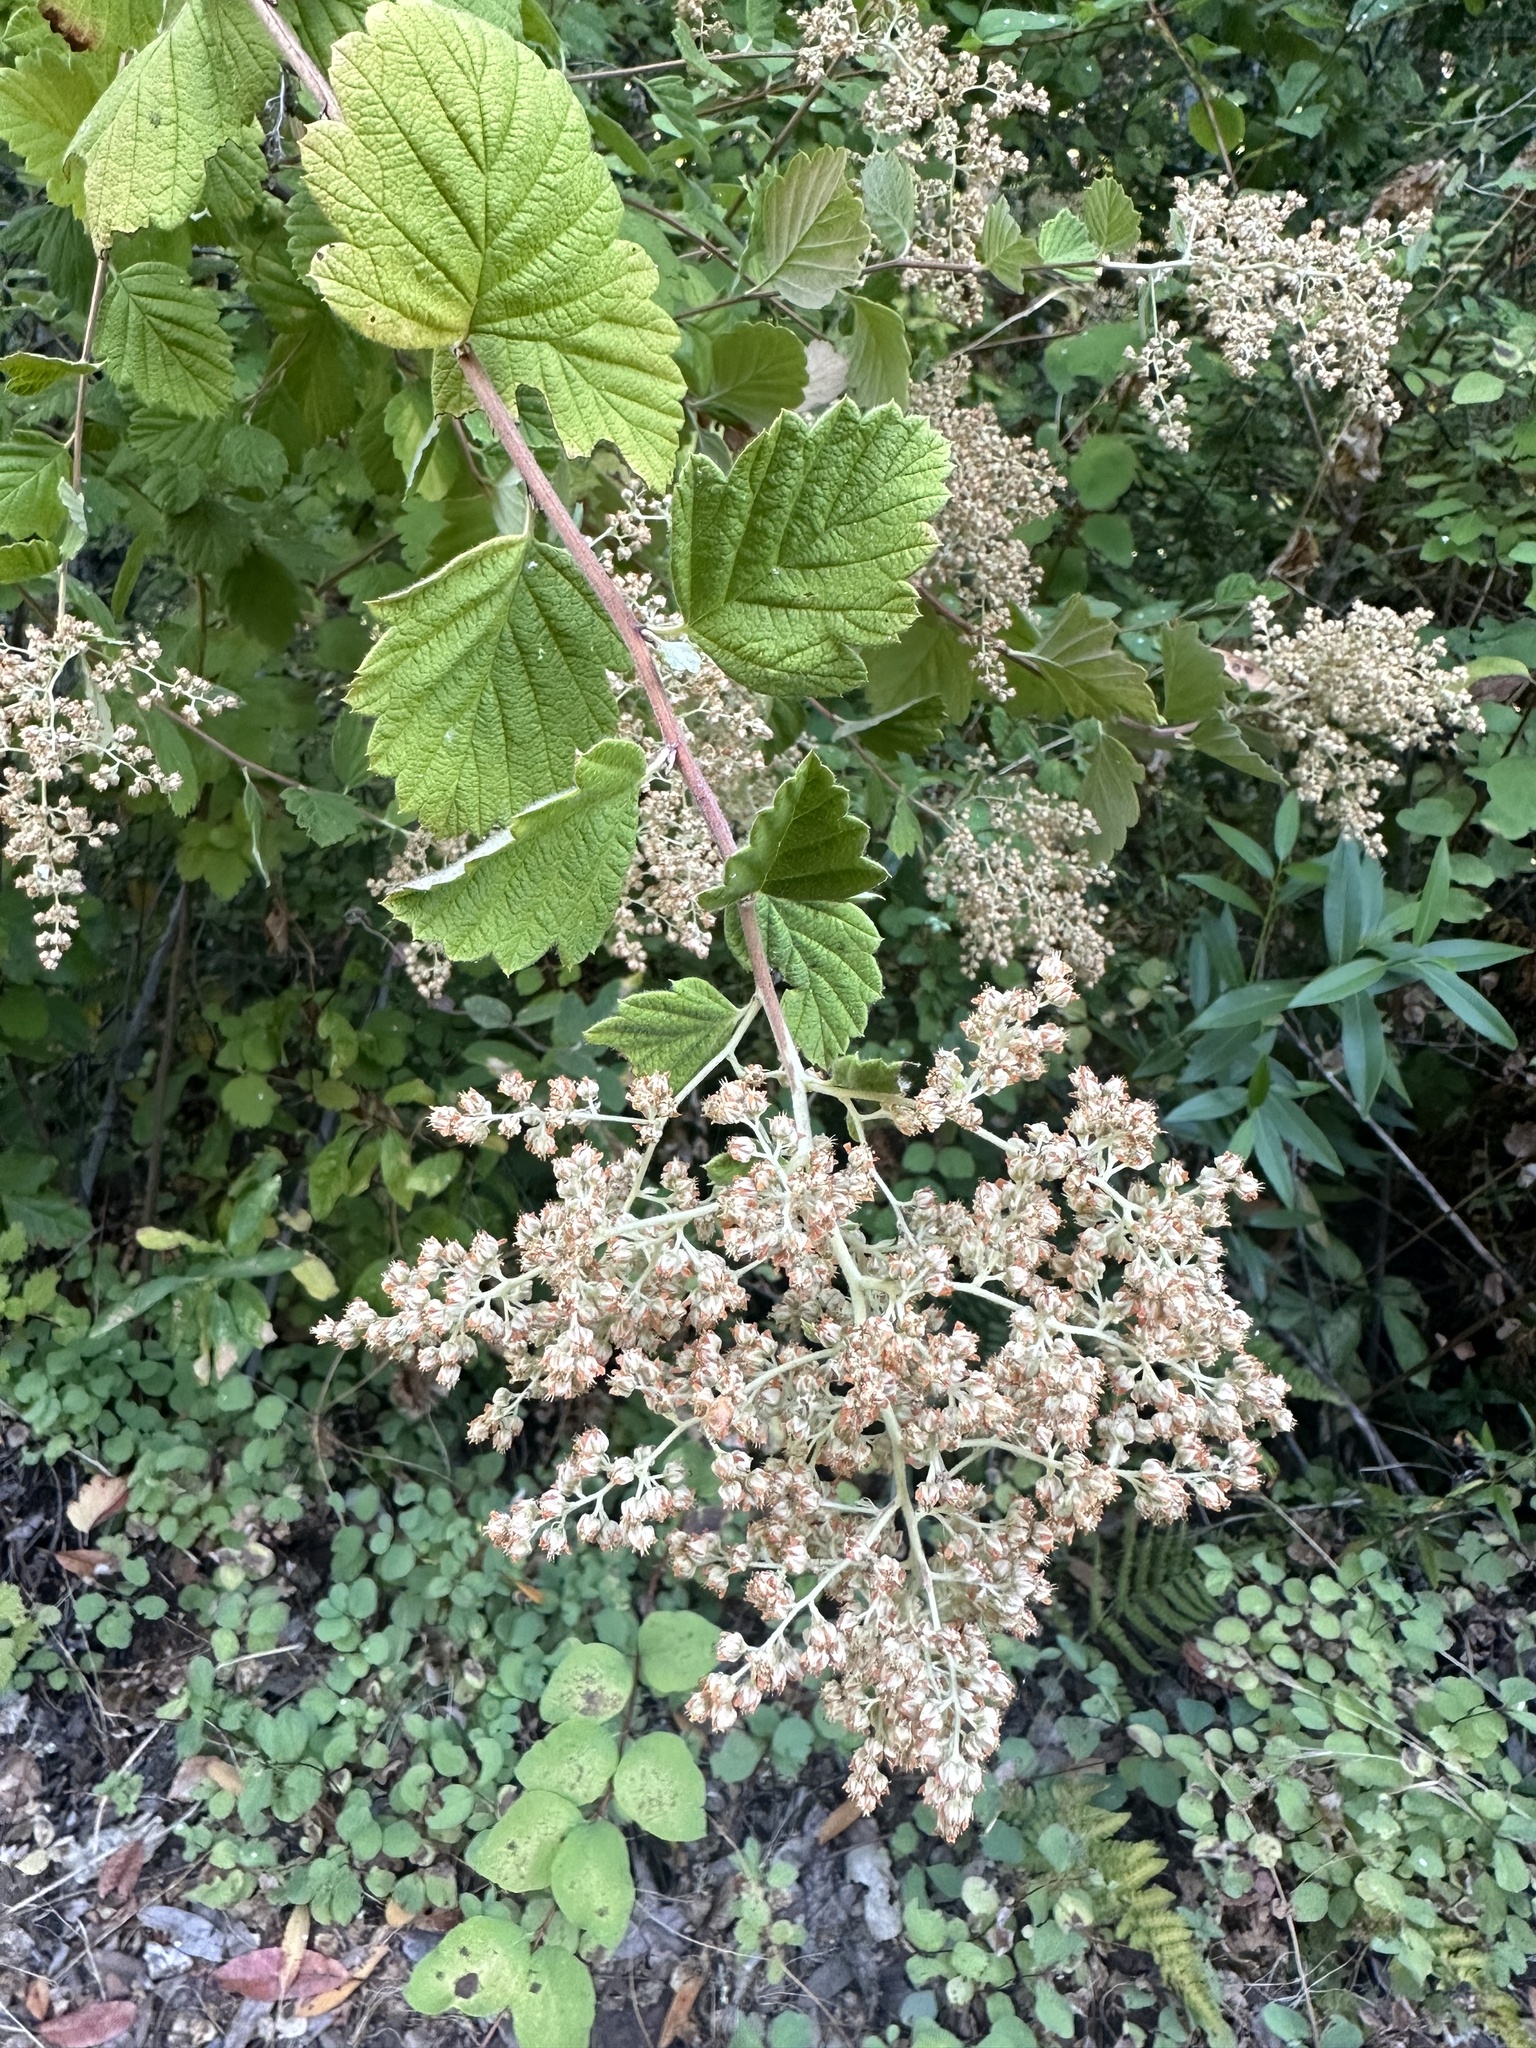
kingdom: Plantae
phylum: Tracheophyta
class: Magnoliopsida
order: Rosales
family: Rosaceae
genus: Holodiscus
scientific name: Holodiscus discolor
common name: Oceanspray
